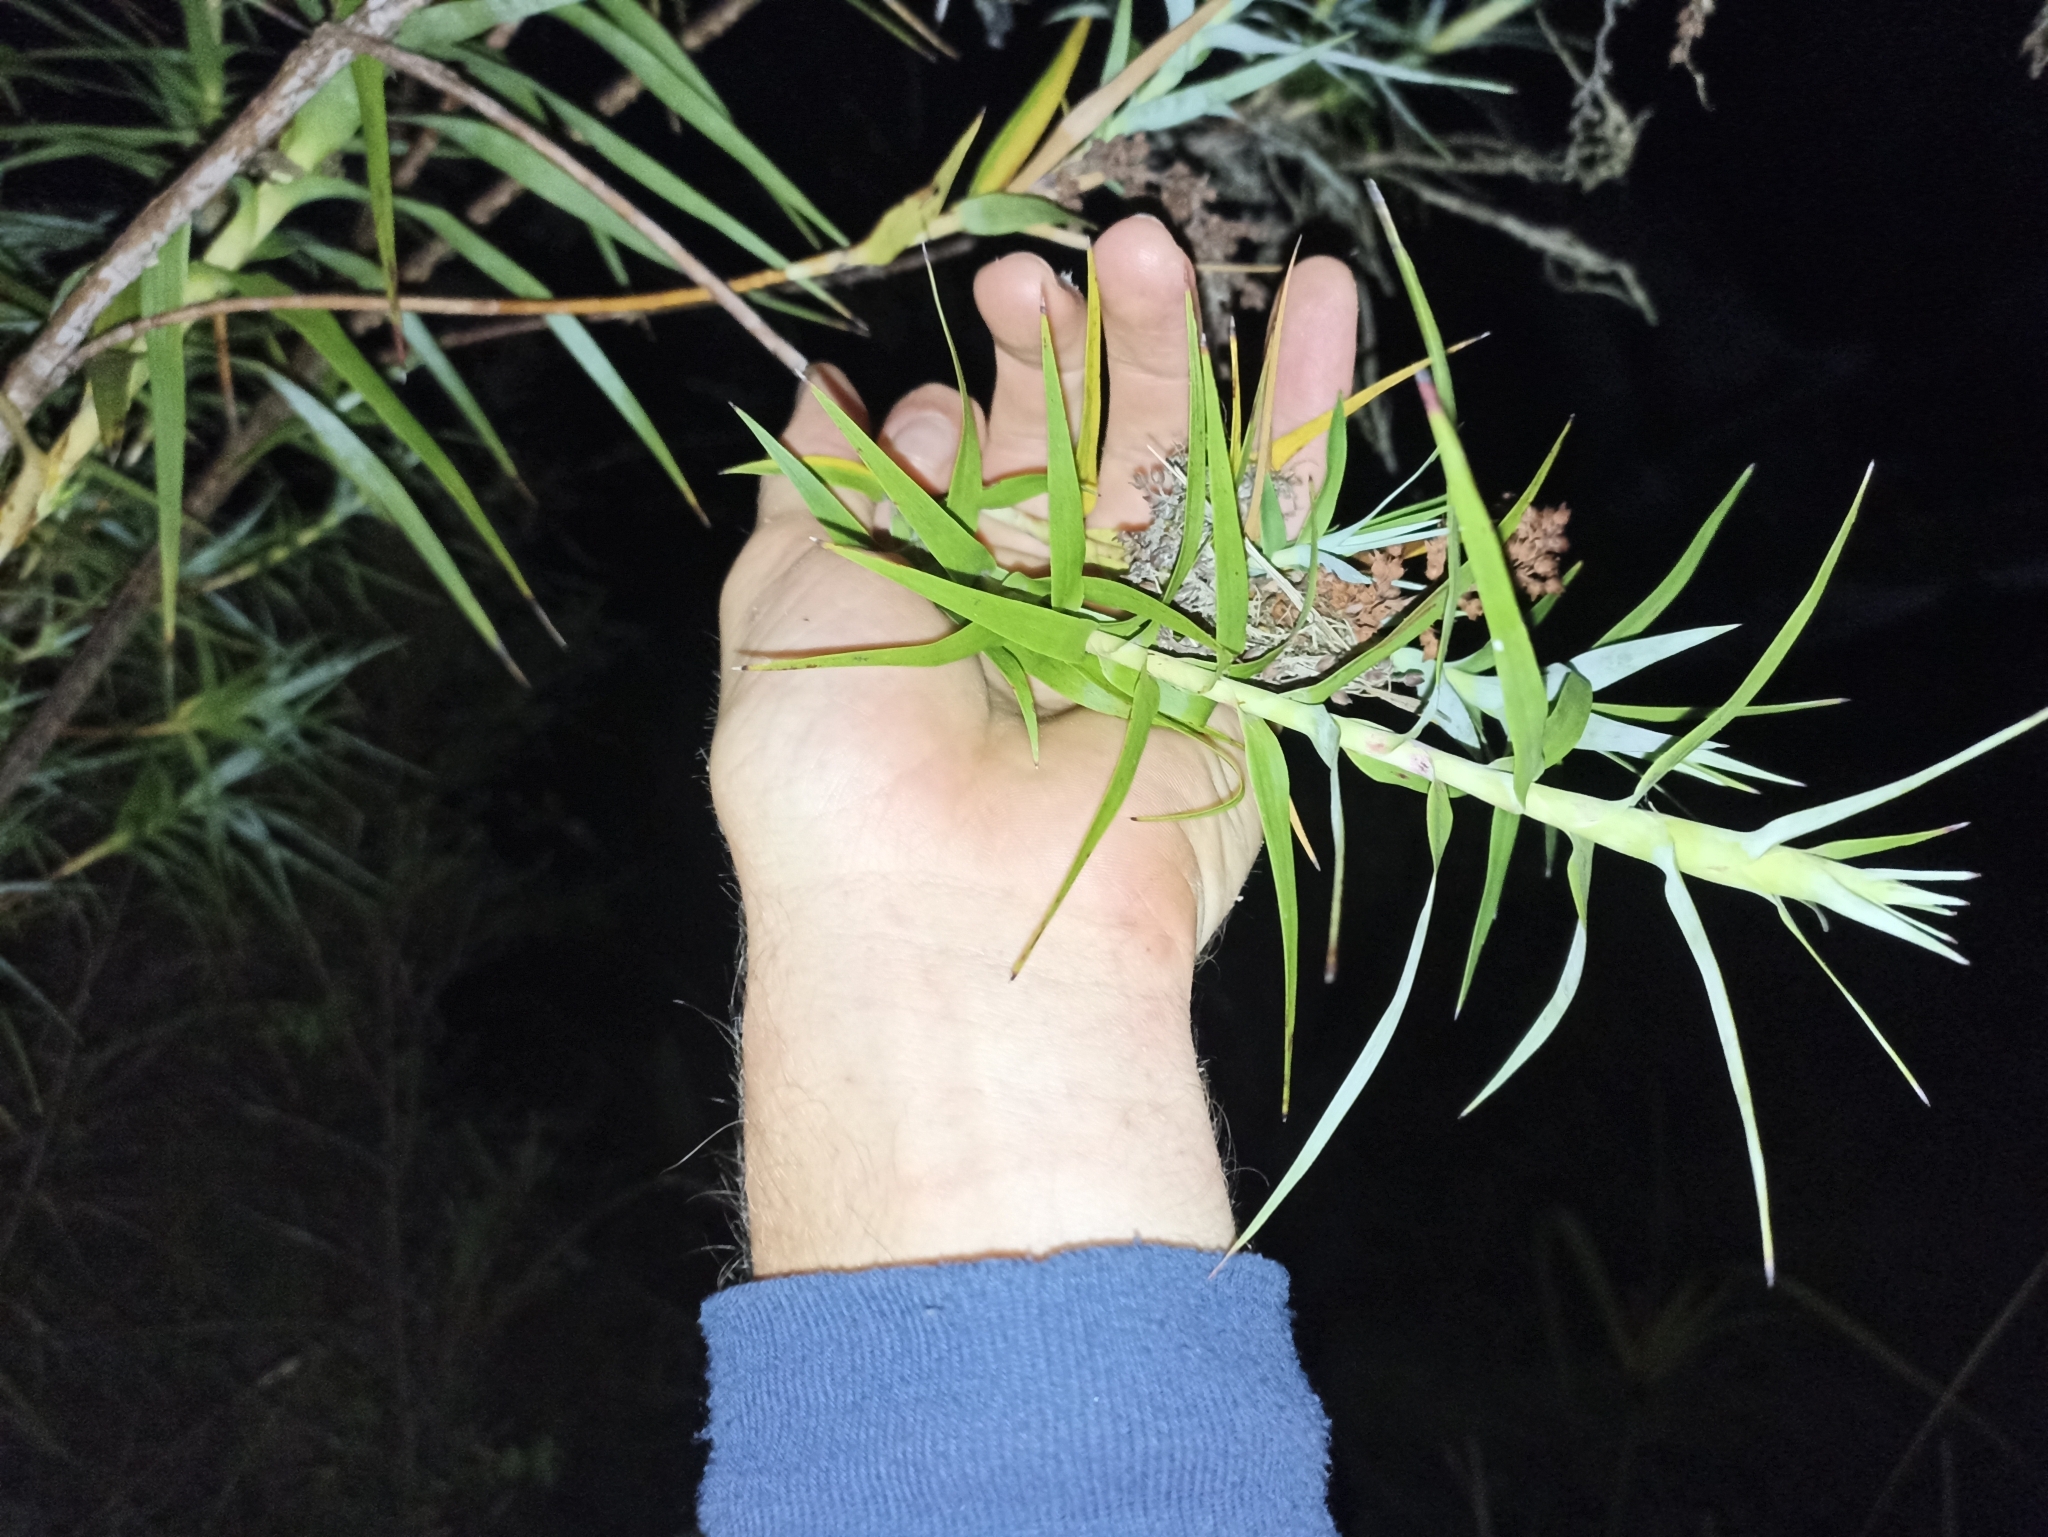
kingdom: Plantae
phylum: Tracheophyta
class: Magnoliopsida
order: Ericales
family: Ericaceae
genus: Dracophyllum
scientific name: Dracophyllum strictum
